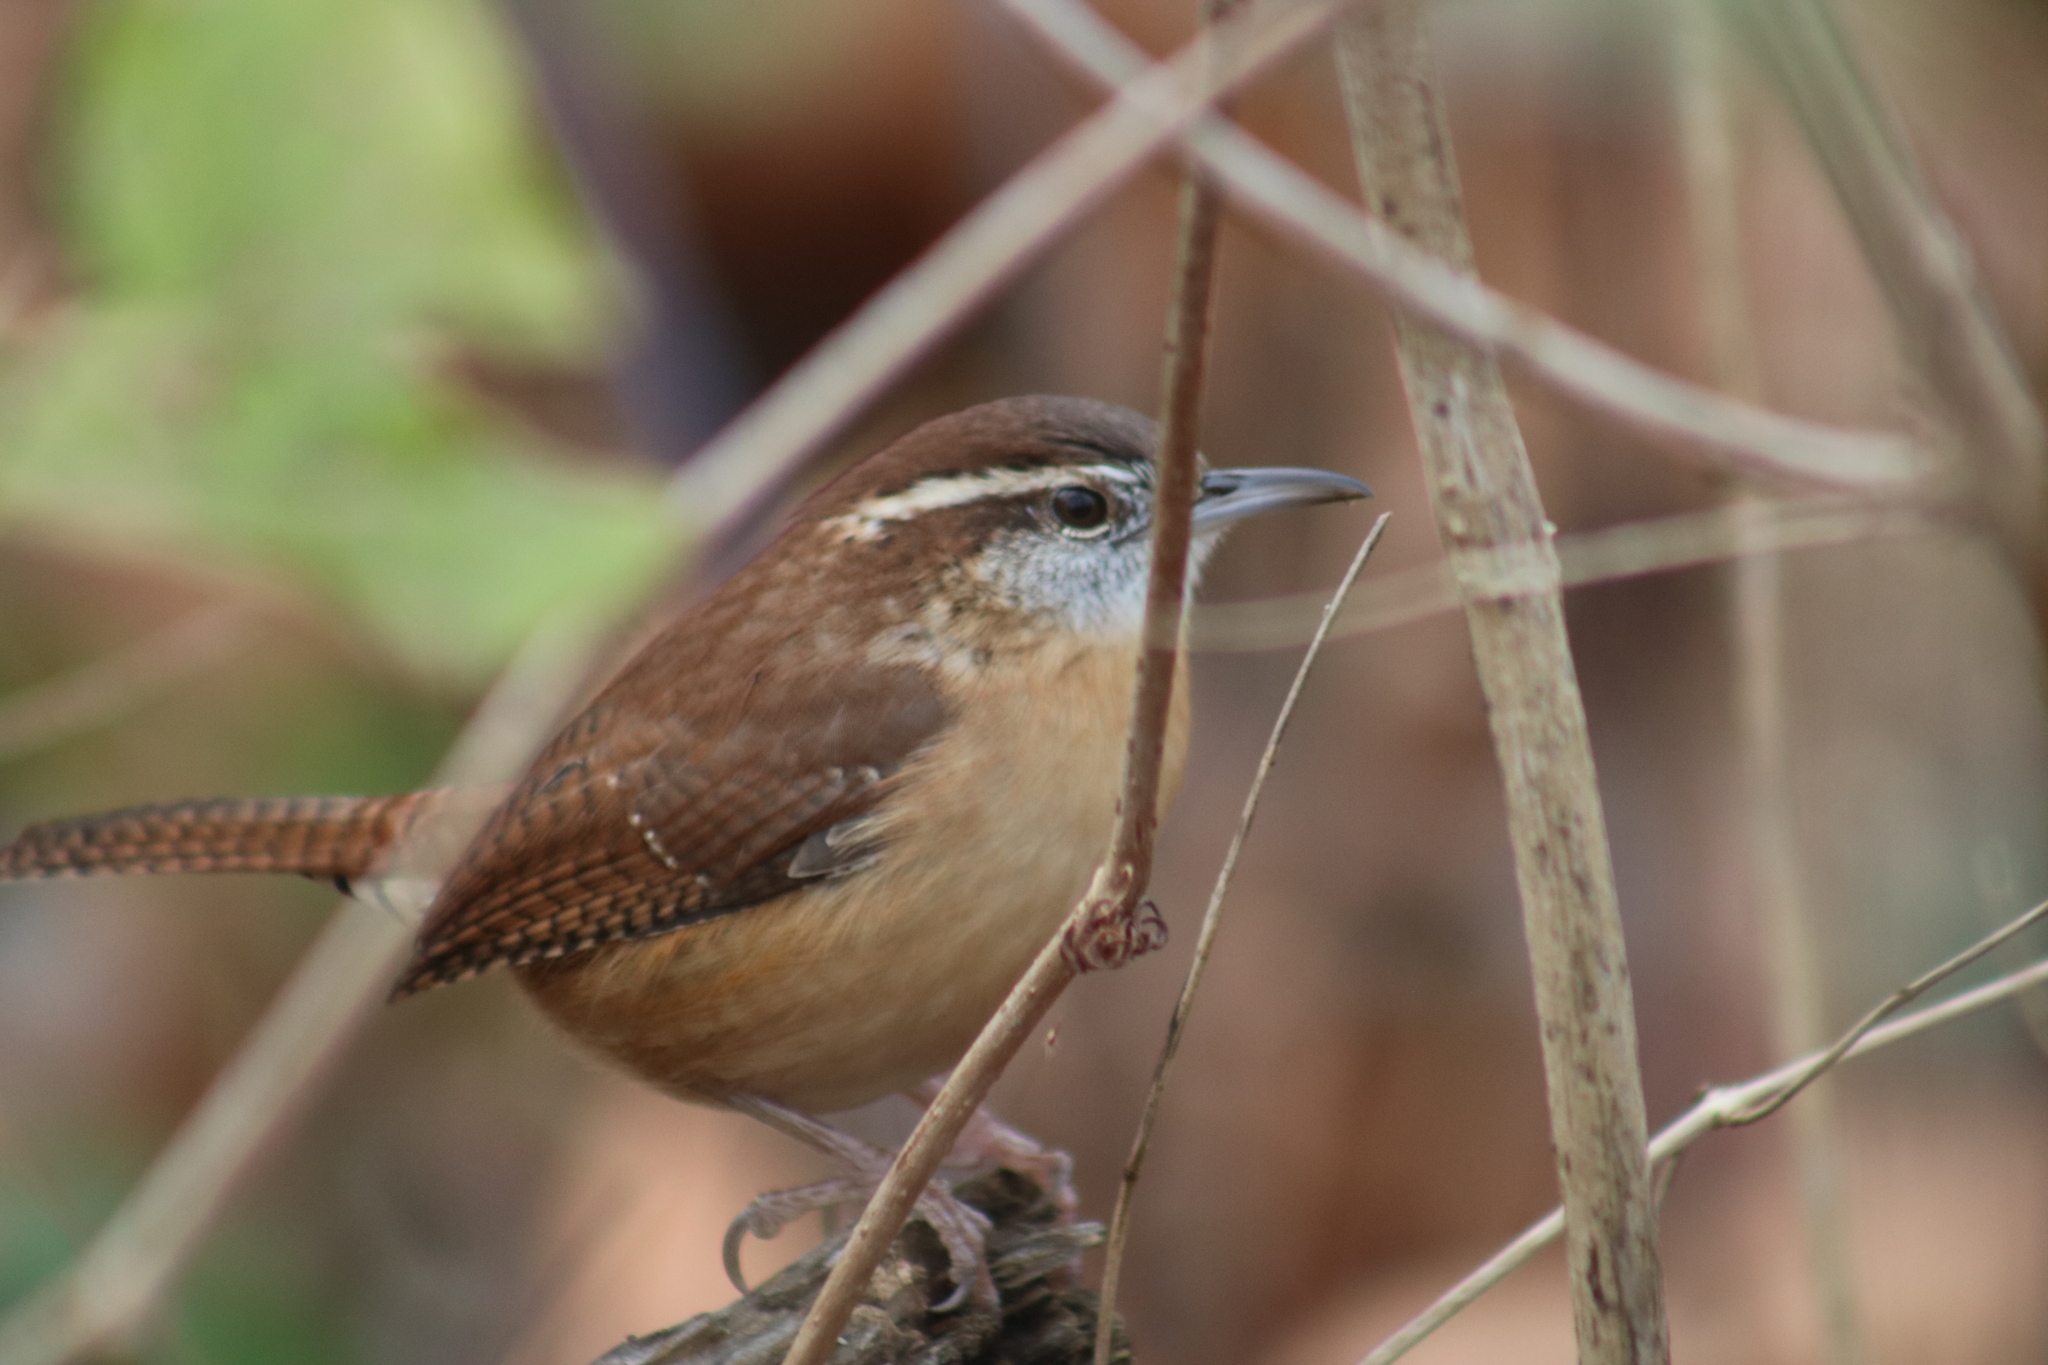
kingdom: Animalia
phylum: Chordata
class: Aves
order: Passeriformes
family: Troglodytidae
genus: Thryothorus
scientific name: Thryothorus ludovicianus
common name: Carolina wren
